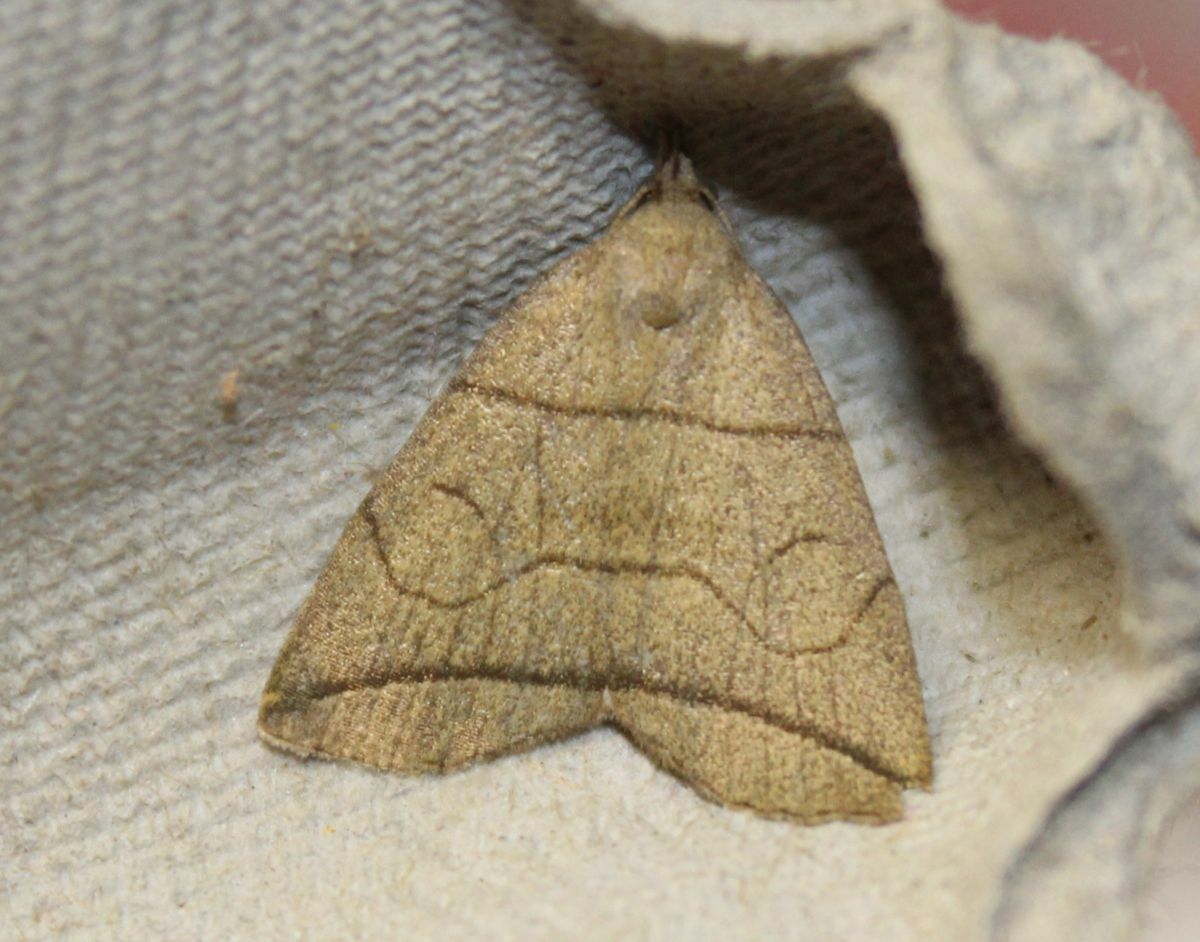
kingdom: Animalia
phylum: Arthropoda
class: Insecta
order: Lepidoptera
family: Erebidae
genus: Herminia
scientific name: Herminia grisealis
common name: Small fan-foot
